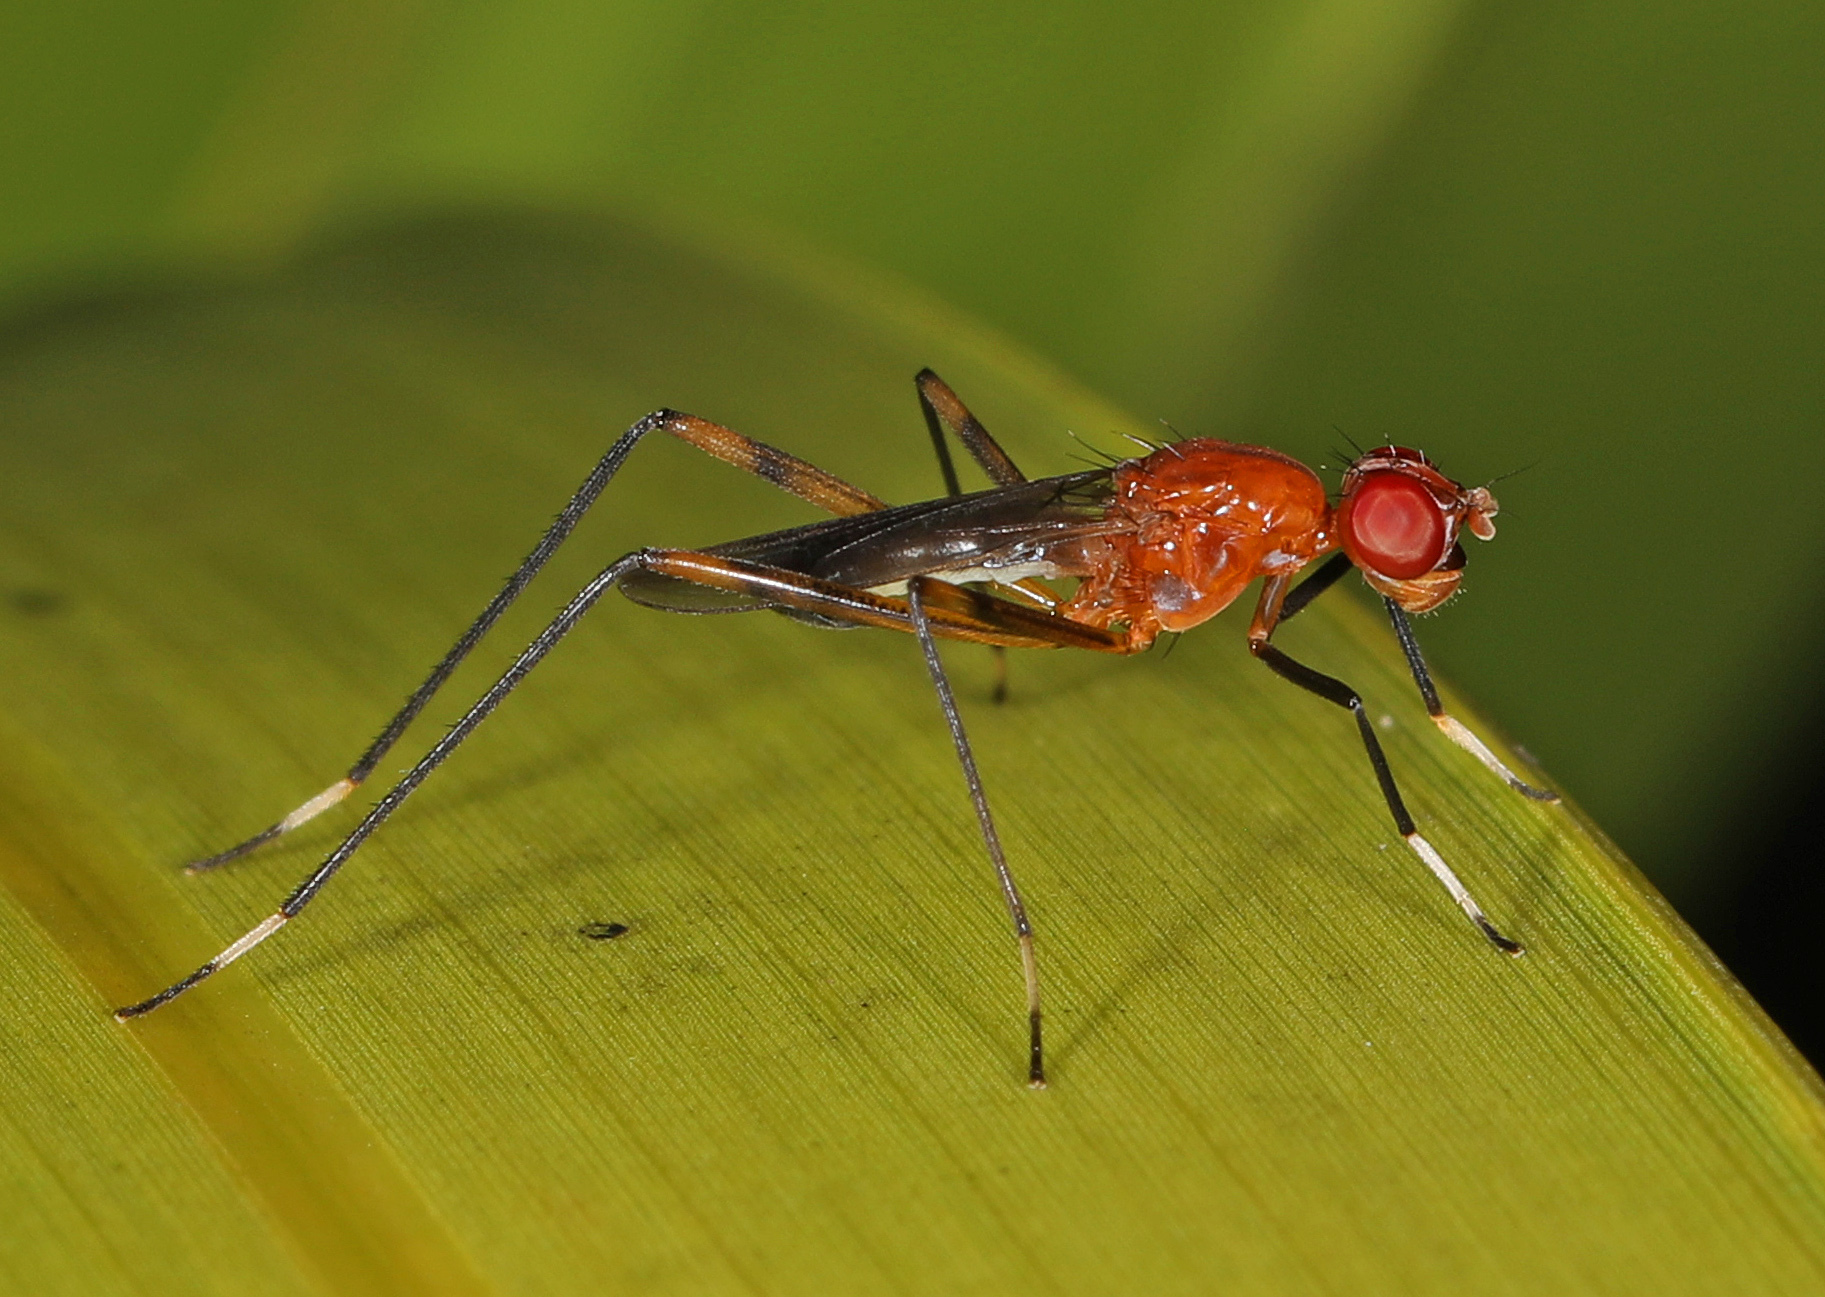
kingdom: Animalia
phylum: Arthropoda
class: Insecta
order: Diptera
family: Micropezidae
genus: Grallipeza
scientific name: Grallipeza nebulosa
